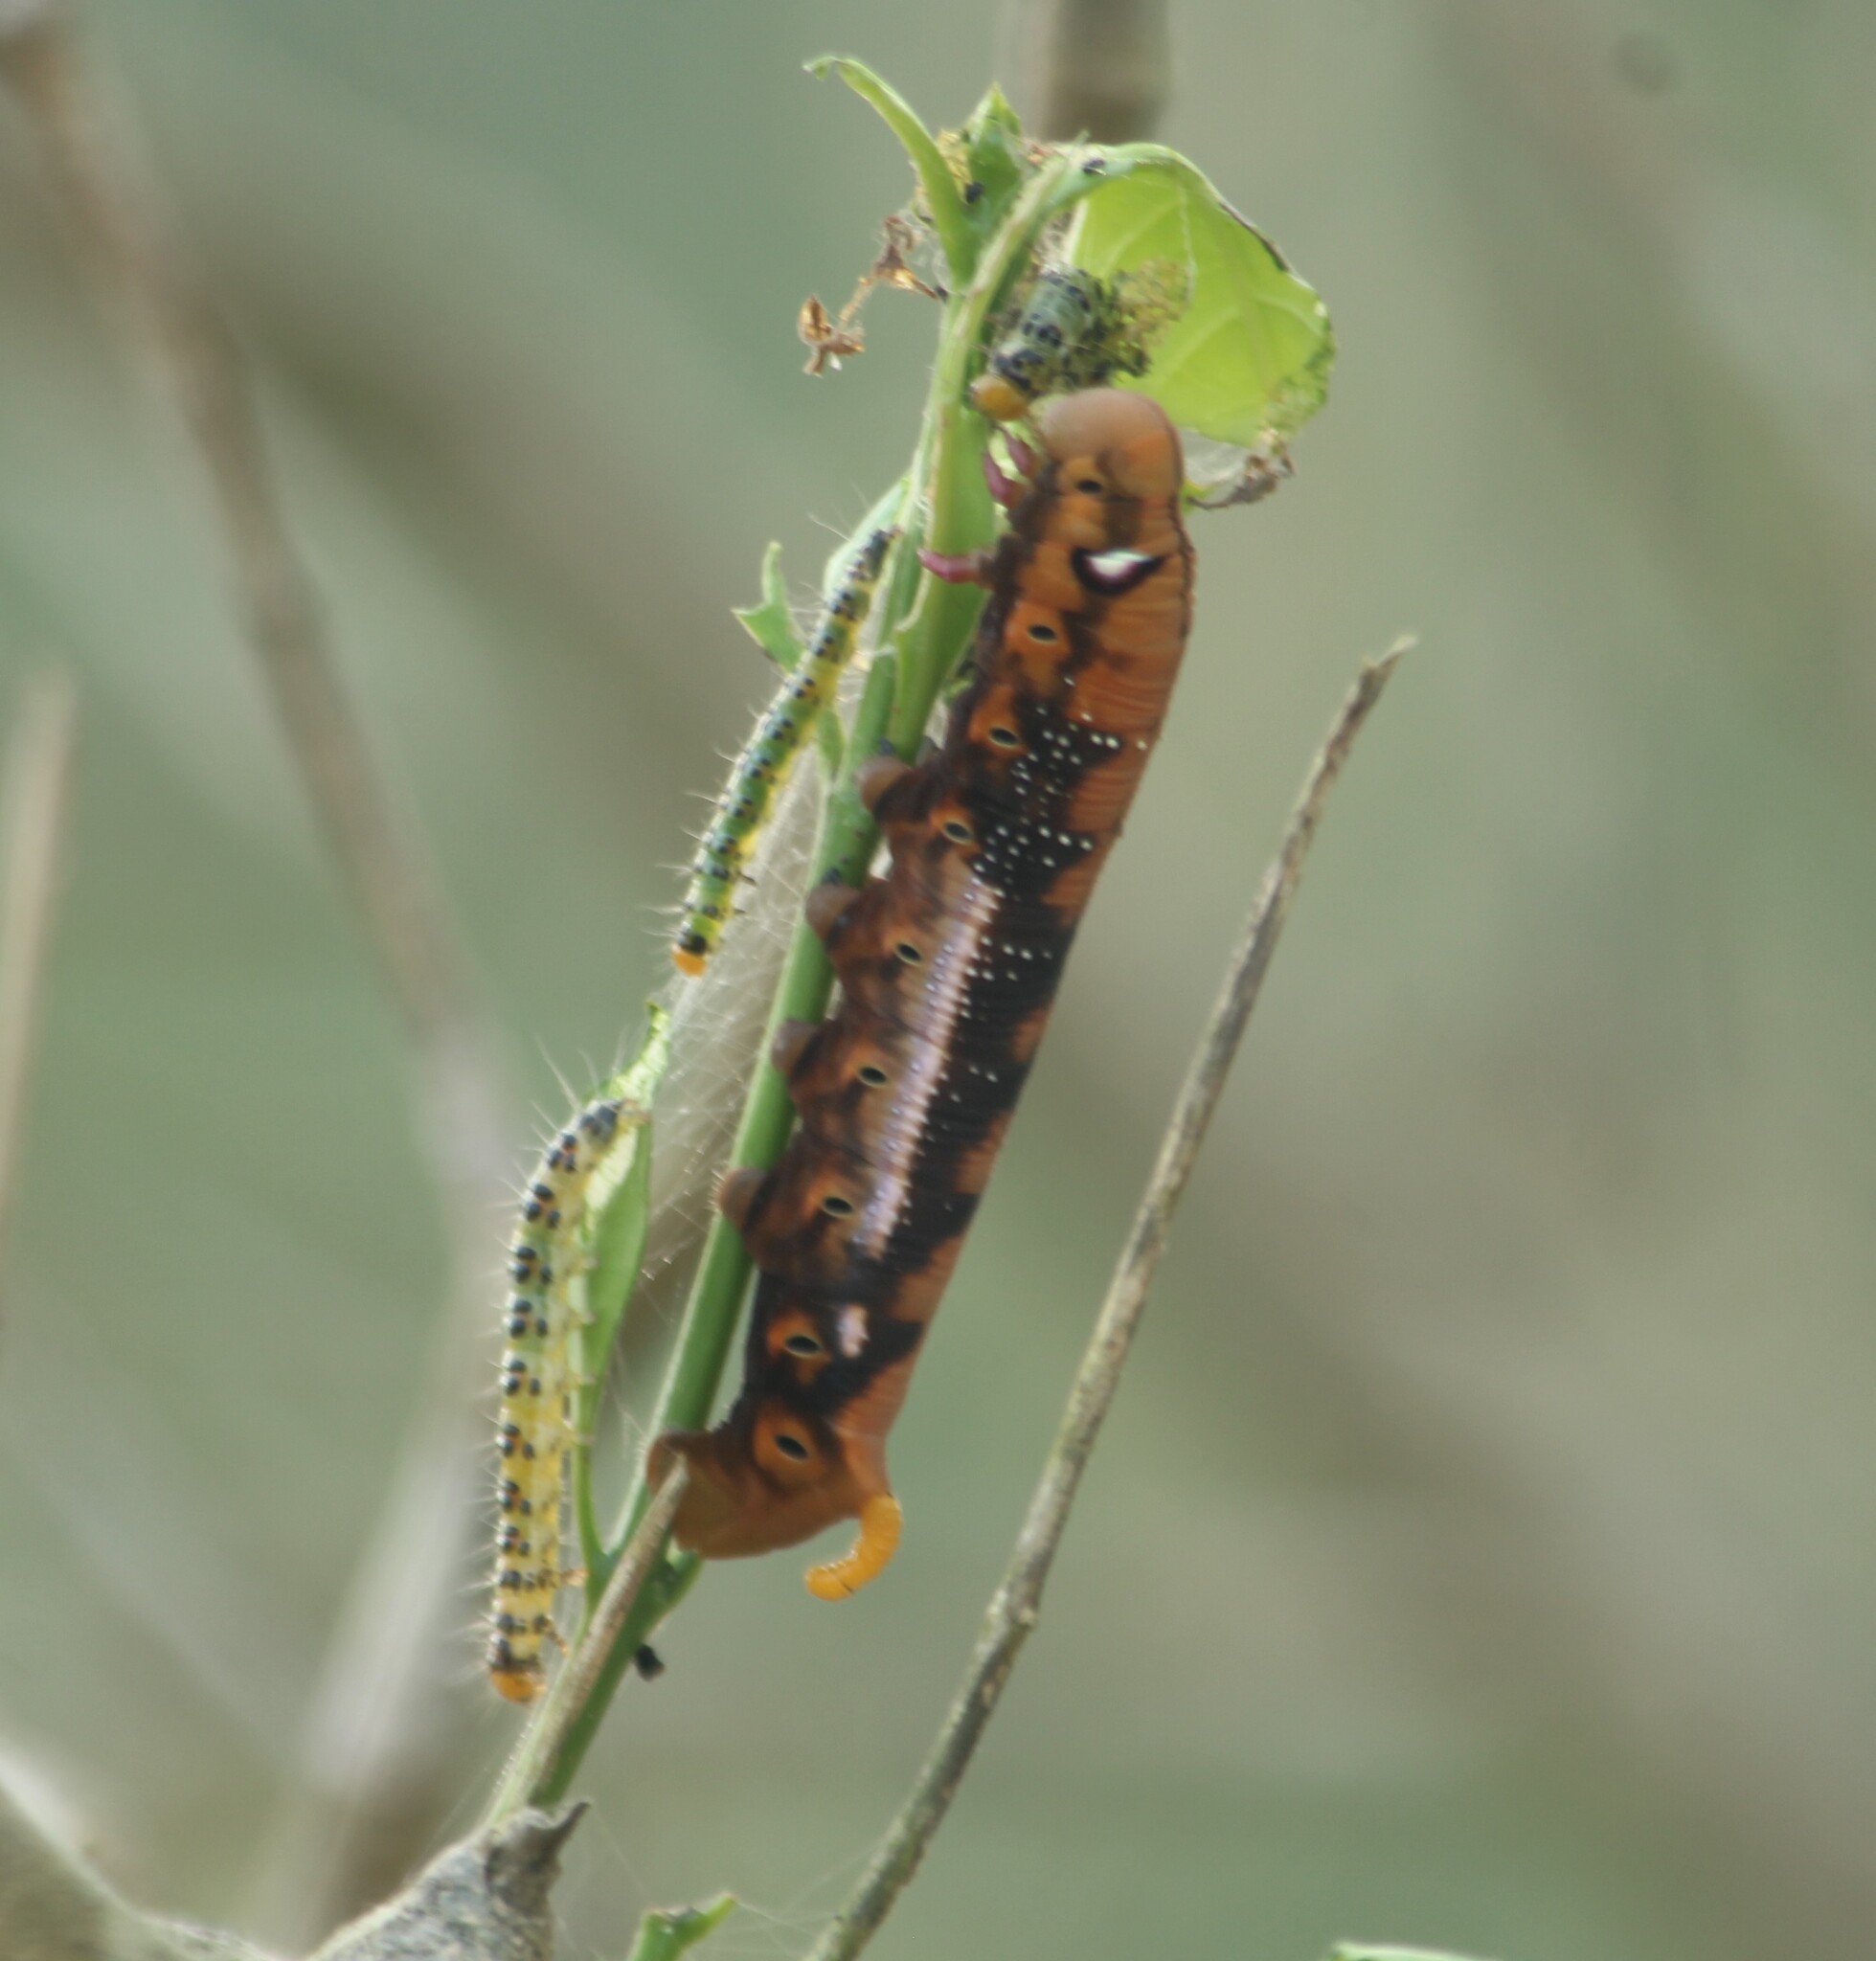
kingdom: Animalia
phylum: Arthropoda
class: Insecta
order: Lepidoptera
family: Sphingidae
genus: Daphnis
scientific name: Daphnis nerii
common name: Oleander hawk-moth
